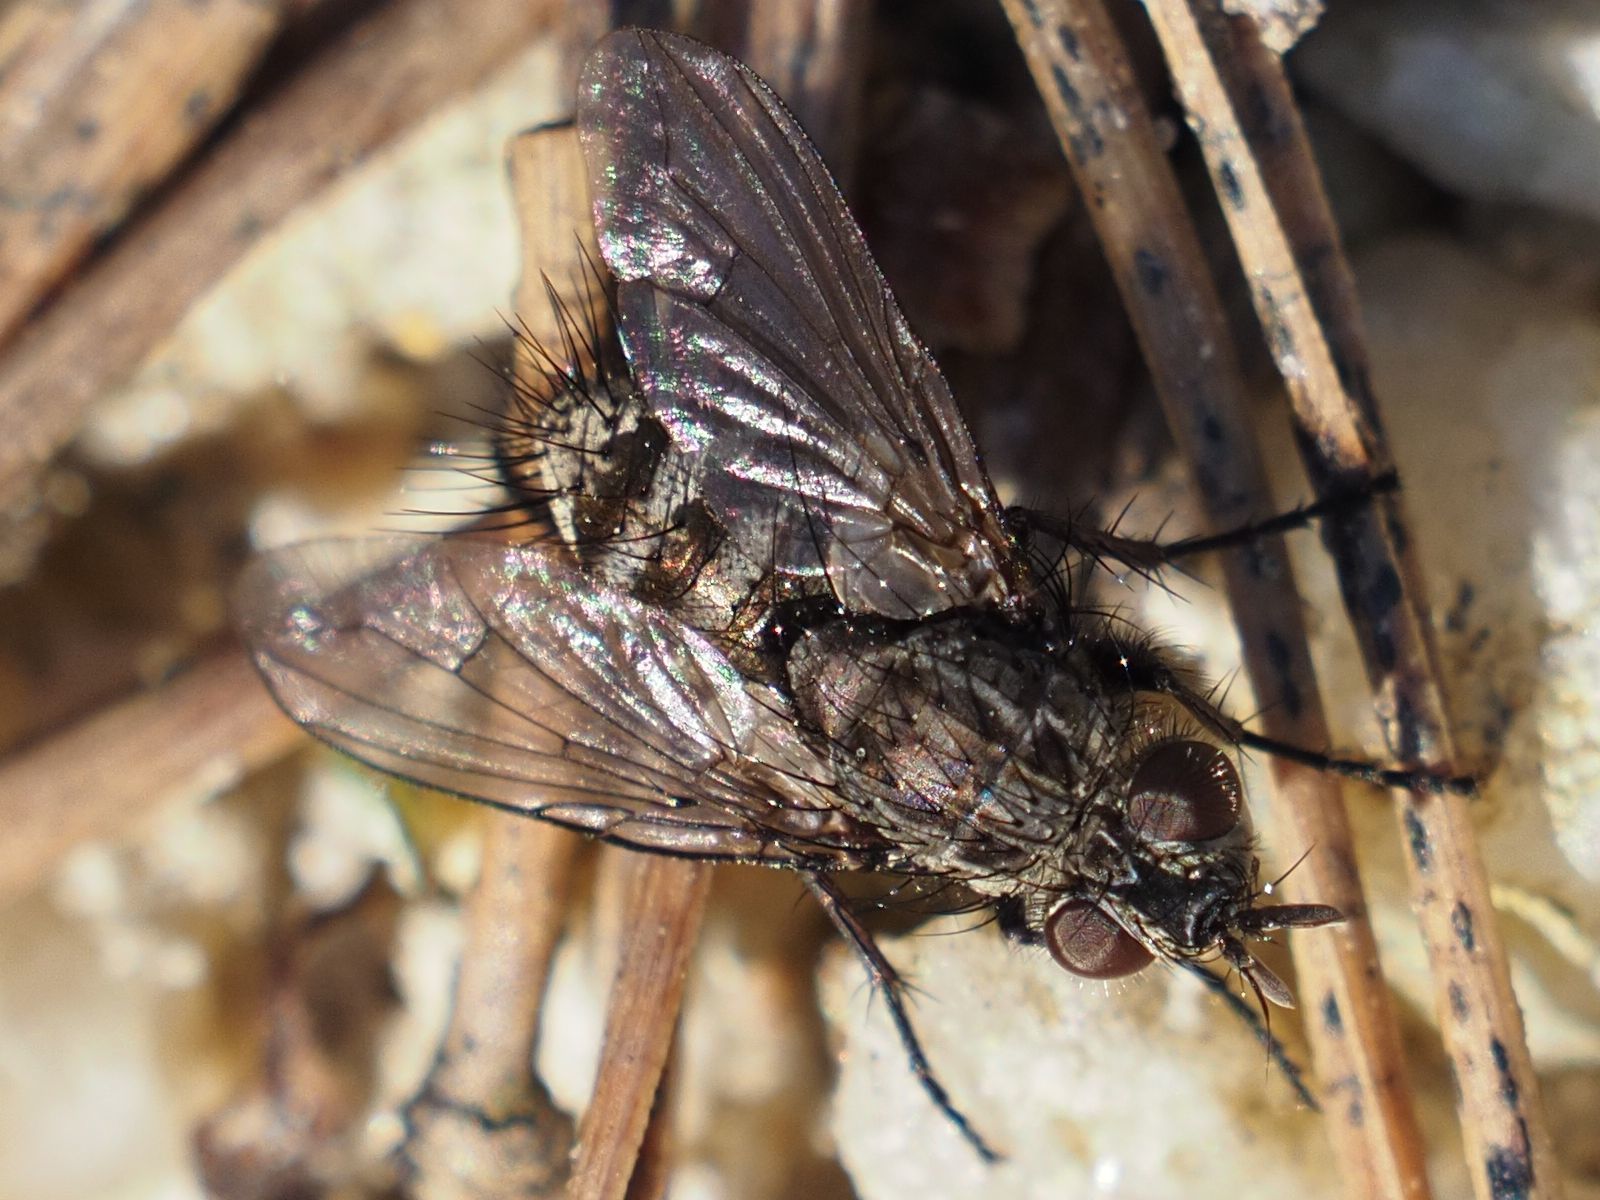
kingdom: Animalia
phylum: Arthropoda
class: Insecta
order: Diptera
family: Tachinidae
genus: Campylocheta
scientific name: Campylocheta praecox
